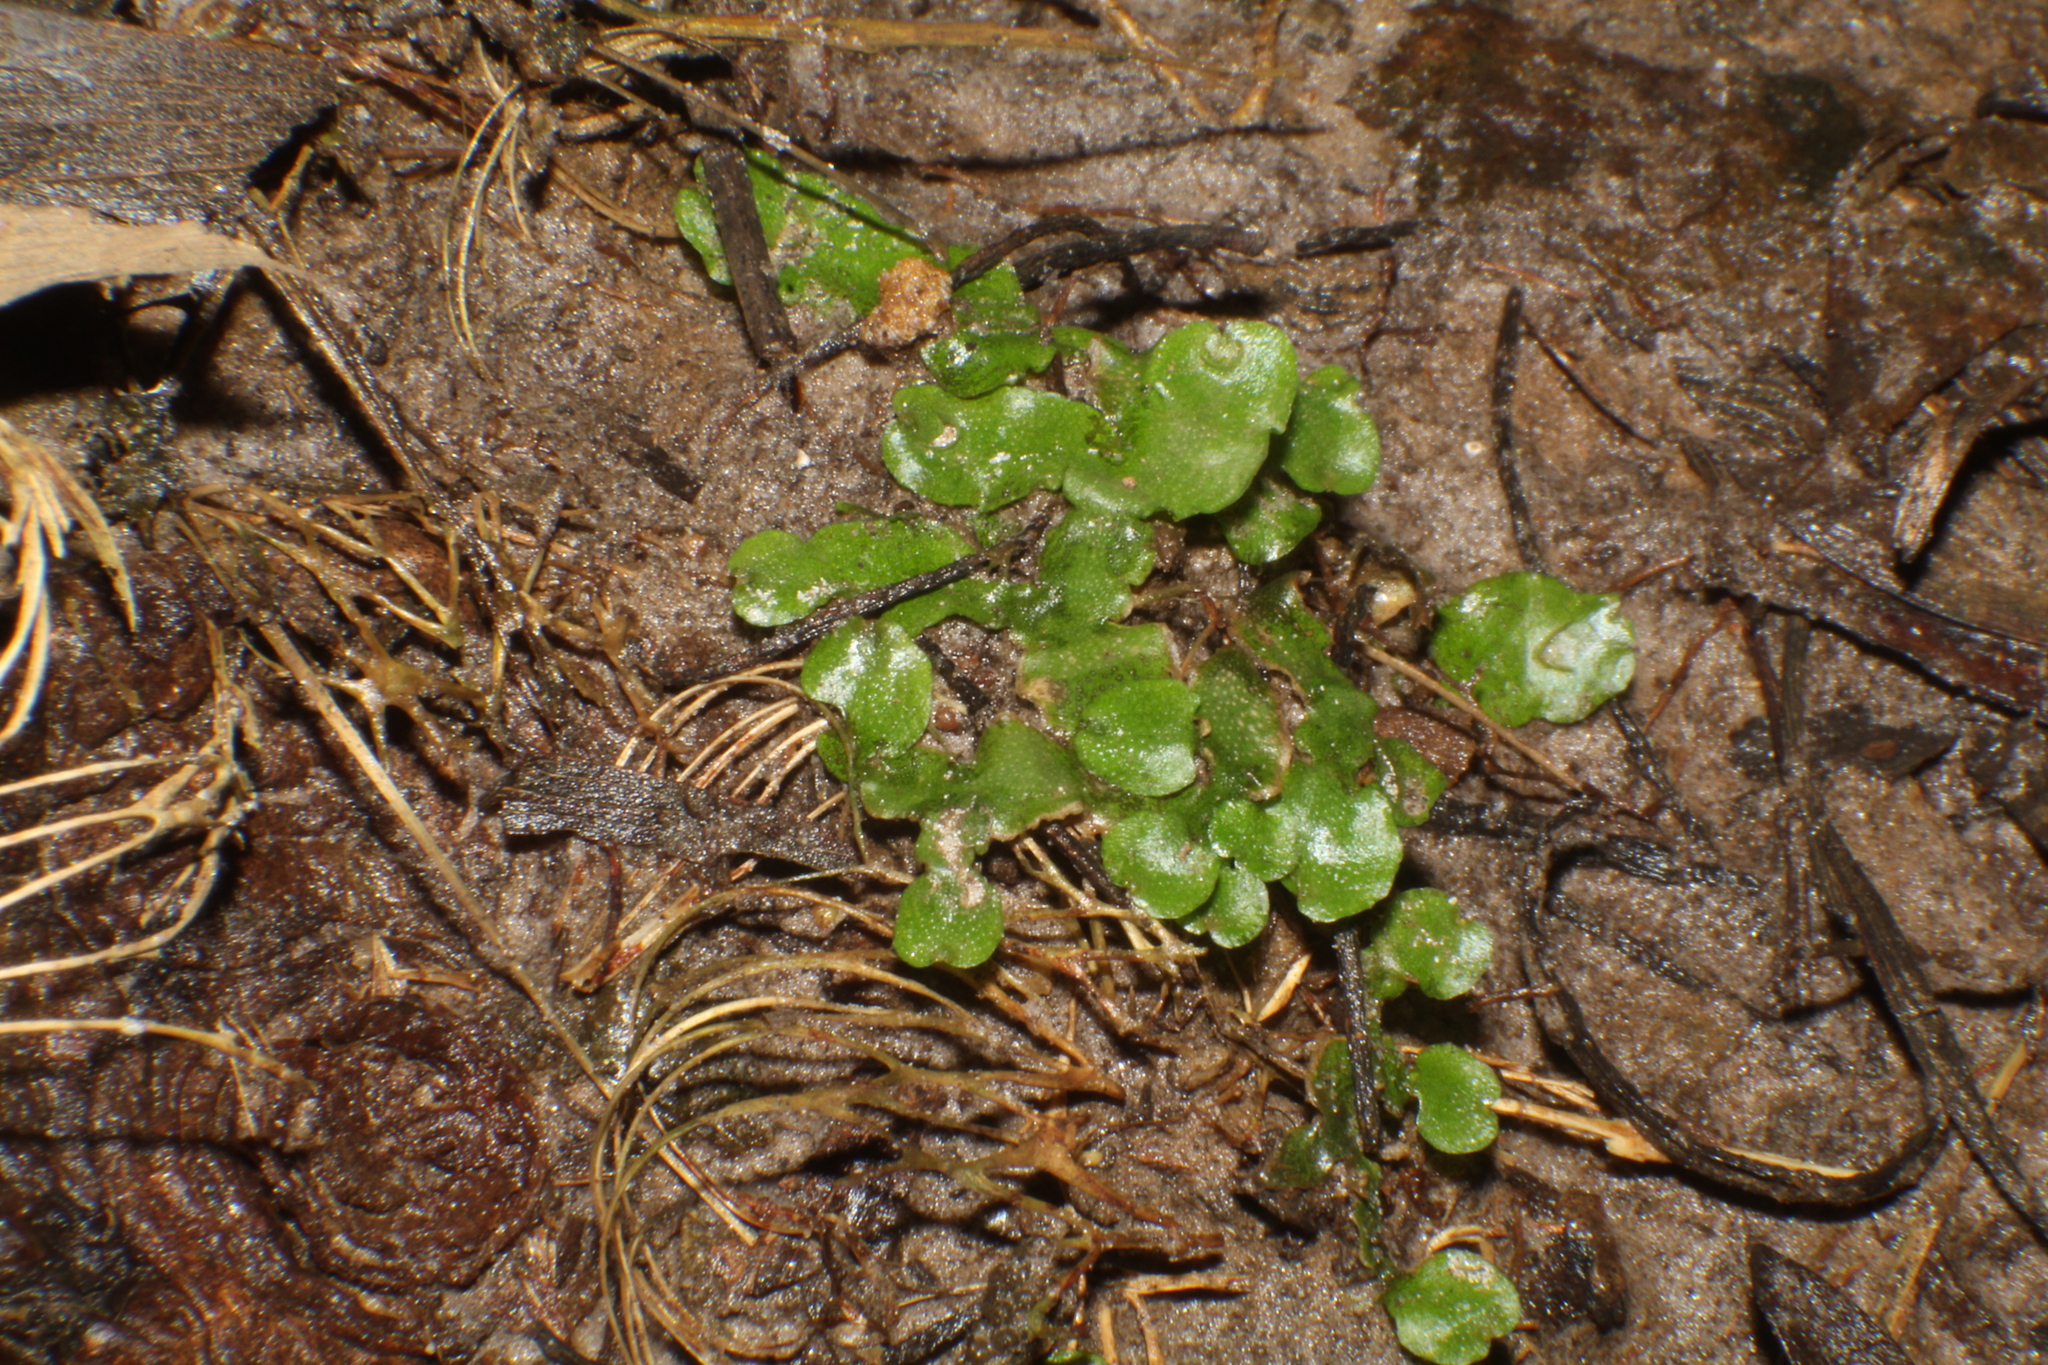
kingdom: Plantae
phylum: Marchantiophyta
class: Marchantiopsida
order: Lunulariales
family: Lunulariaceae
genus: Lunularia
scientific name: Lunularia cruciata
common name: Crescent-cup liverwort
